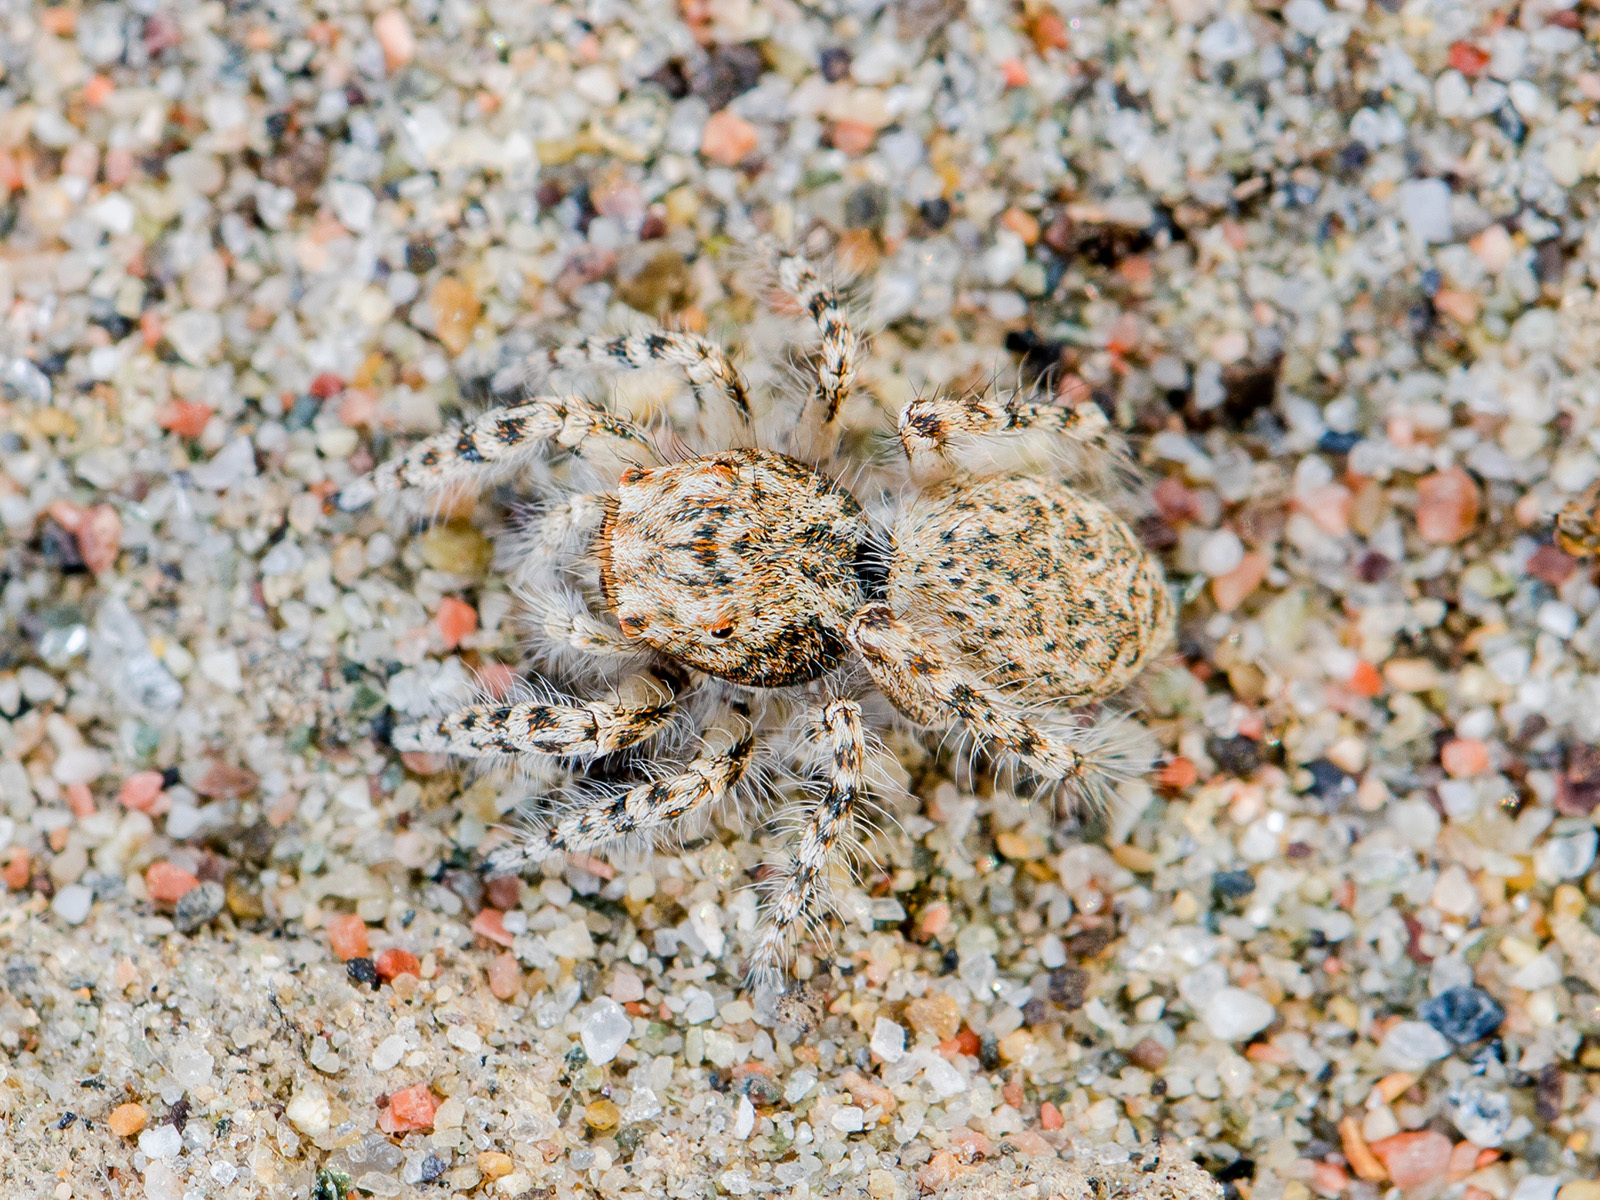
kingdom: Animalia
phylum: Arthropoda
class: Arachnida
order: Araneae
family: Salticidae
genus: Yllenus
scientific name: Yllenus uiguricus
